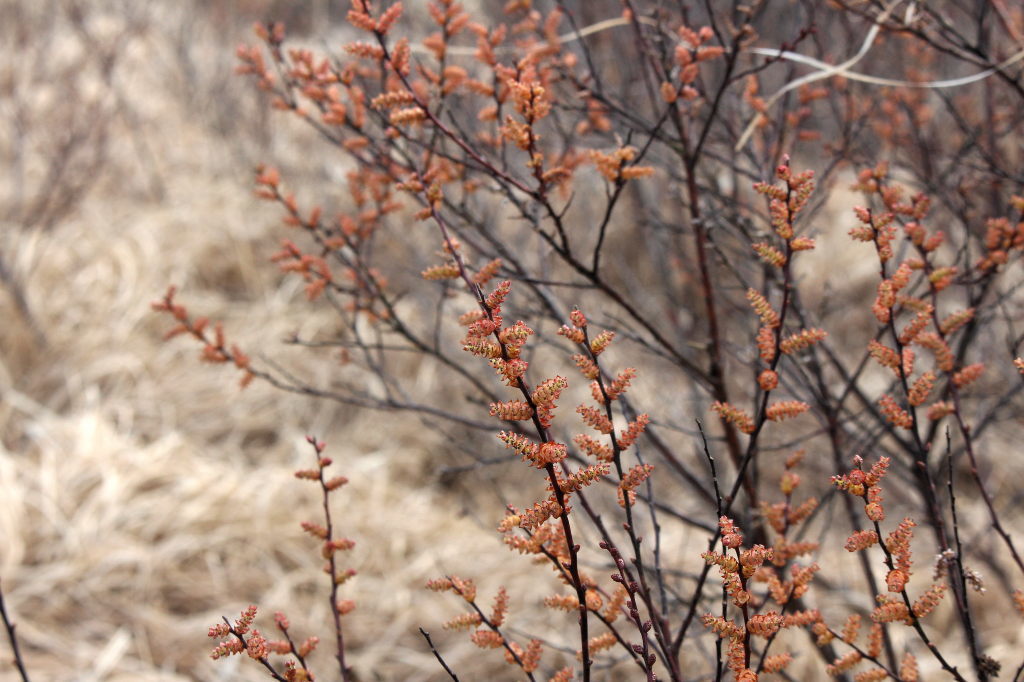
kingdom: Plantae
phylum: Tracheophyta
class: Magnoliopsida
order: Fagales
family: Myricaceae
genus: Myrica
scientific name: Myrica gale
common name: Sweet gale
